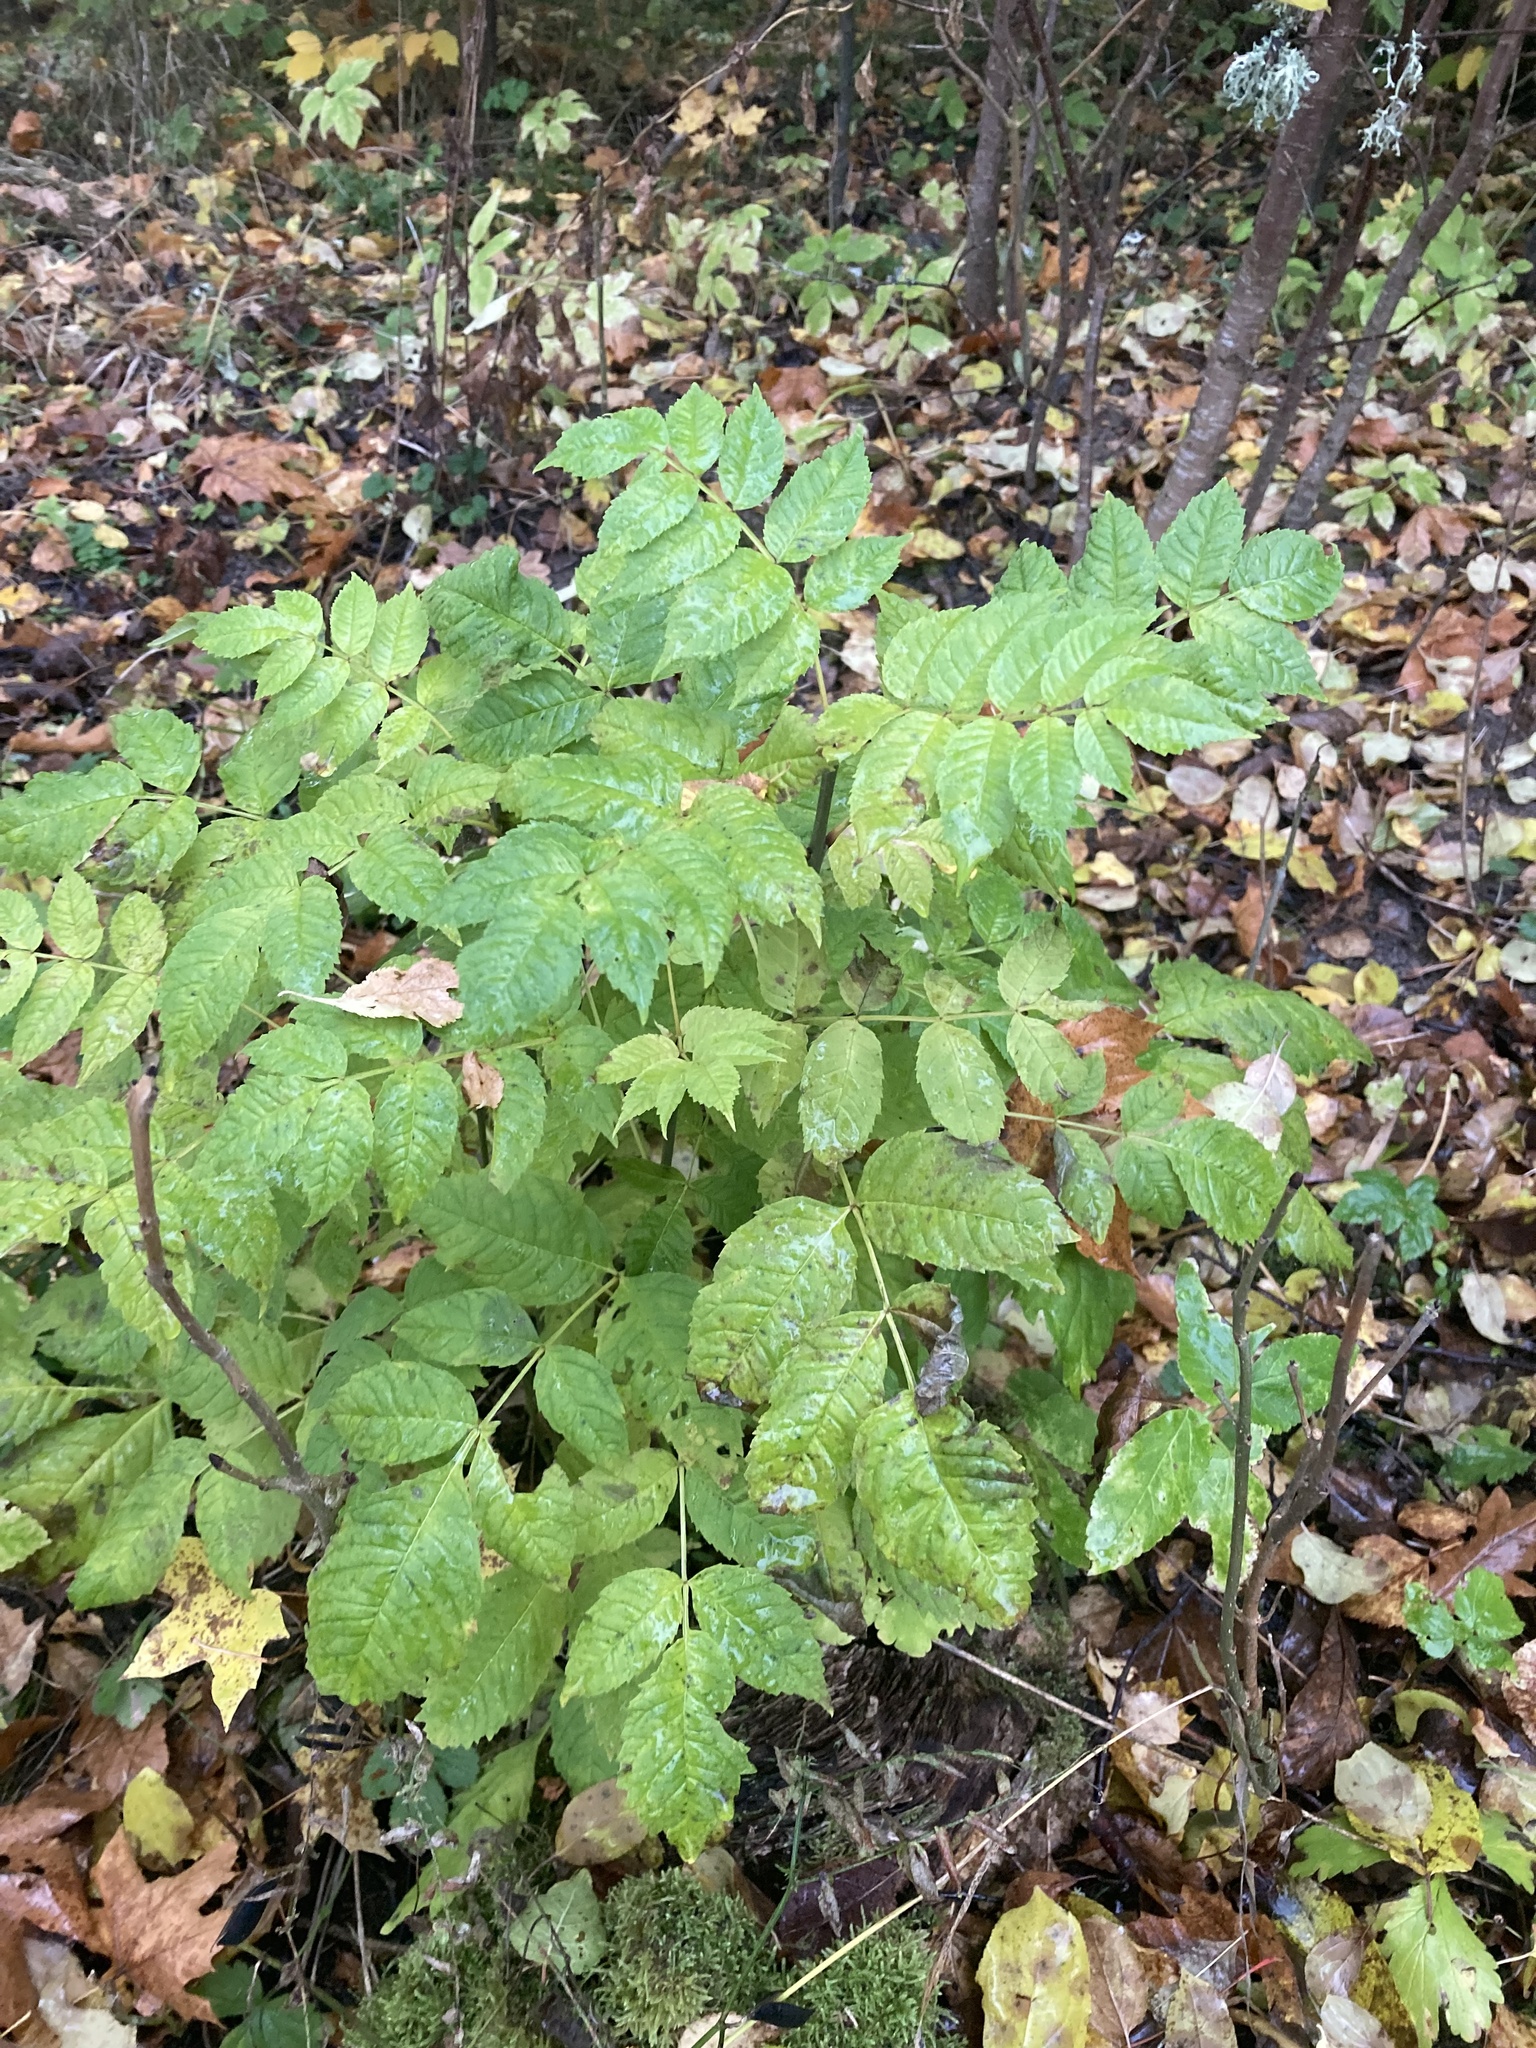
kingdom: Plantae
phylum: Tracheophyta
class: Magnoliopsida
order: Lamiales
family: Oleaceae
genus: Fraxinus
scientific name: Fraxinus excelsior
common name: European ash
